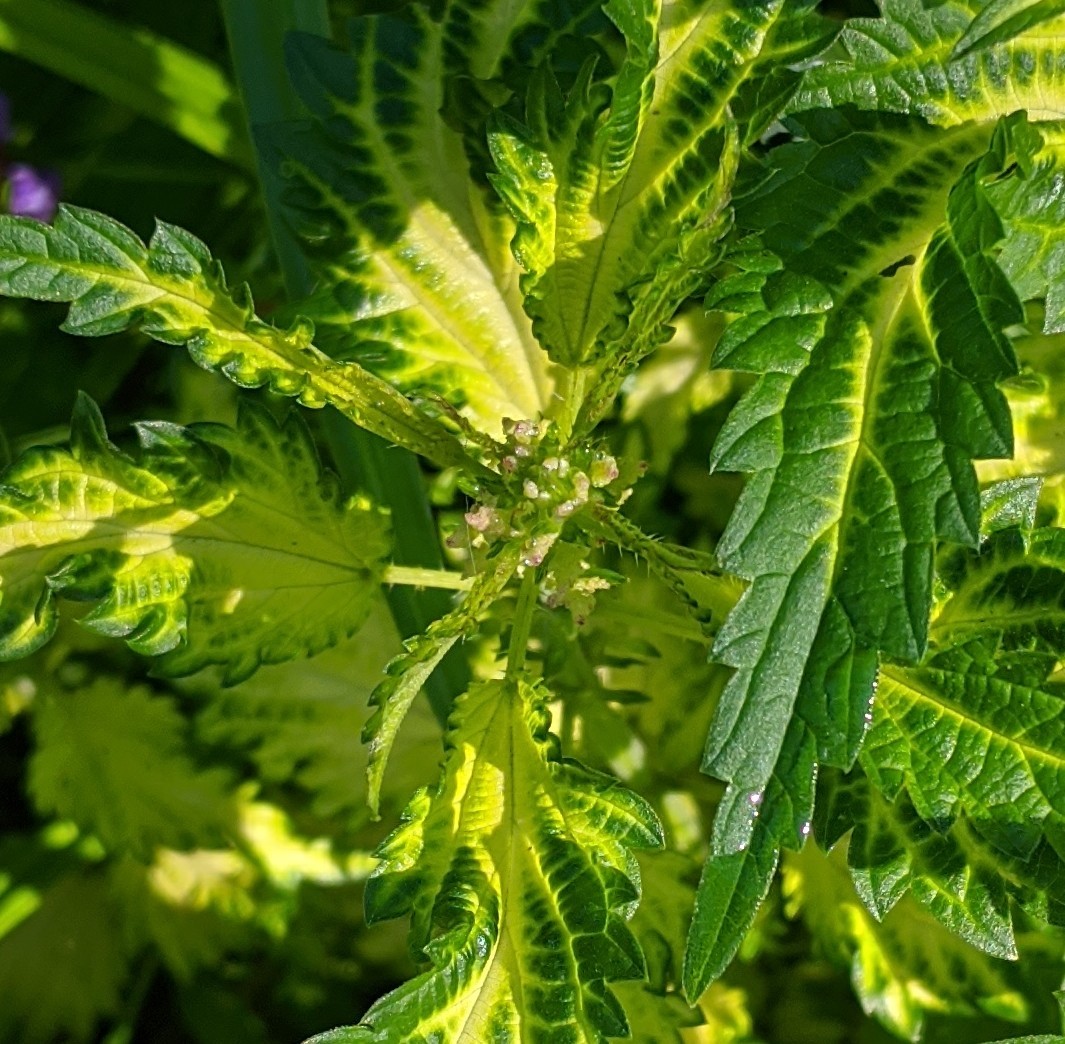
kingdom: Plantae
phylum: Tracheophyta
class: Magnoliopsida
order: Rosales
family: Urticaceae
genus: Urtica
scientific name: Urtica dioica
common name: Common nettle
